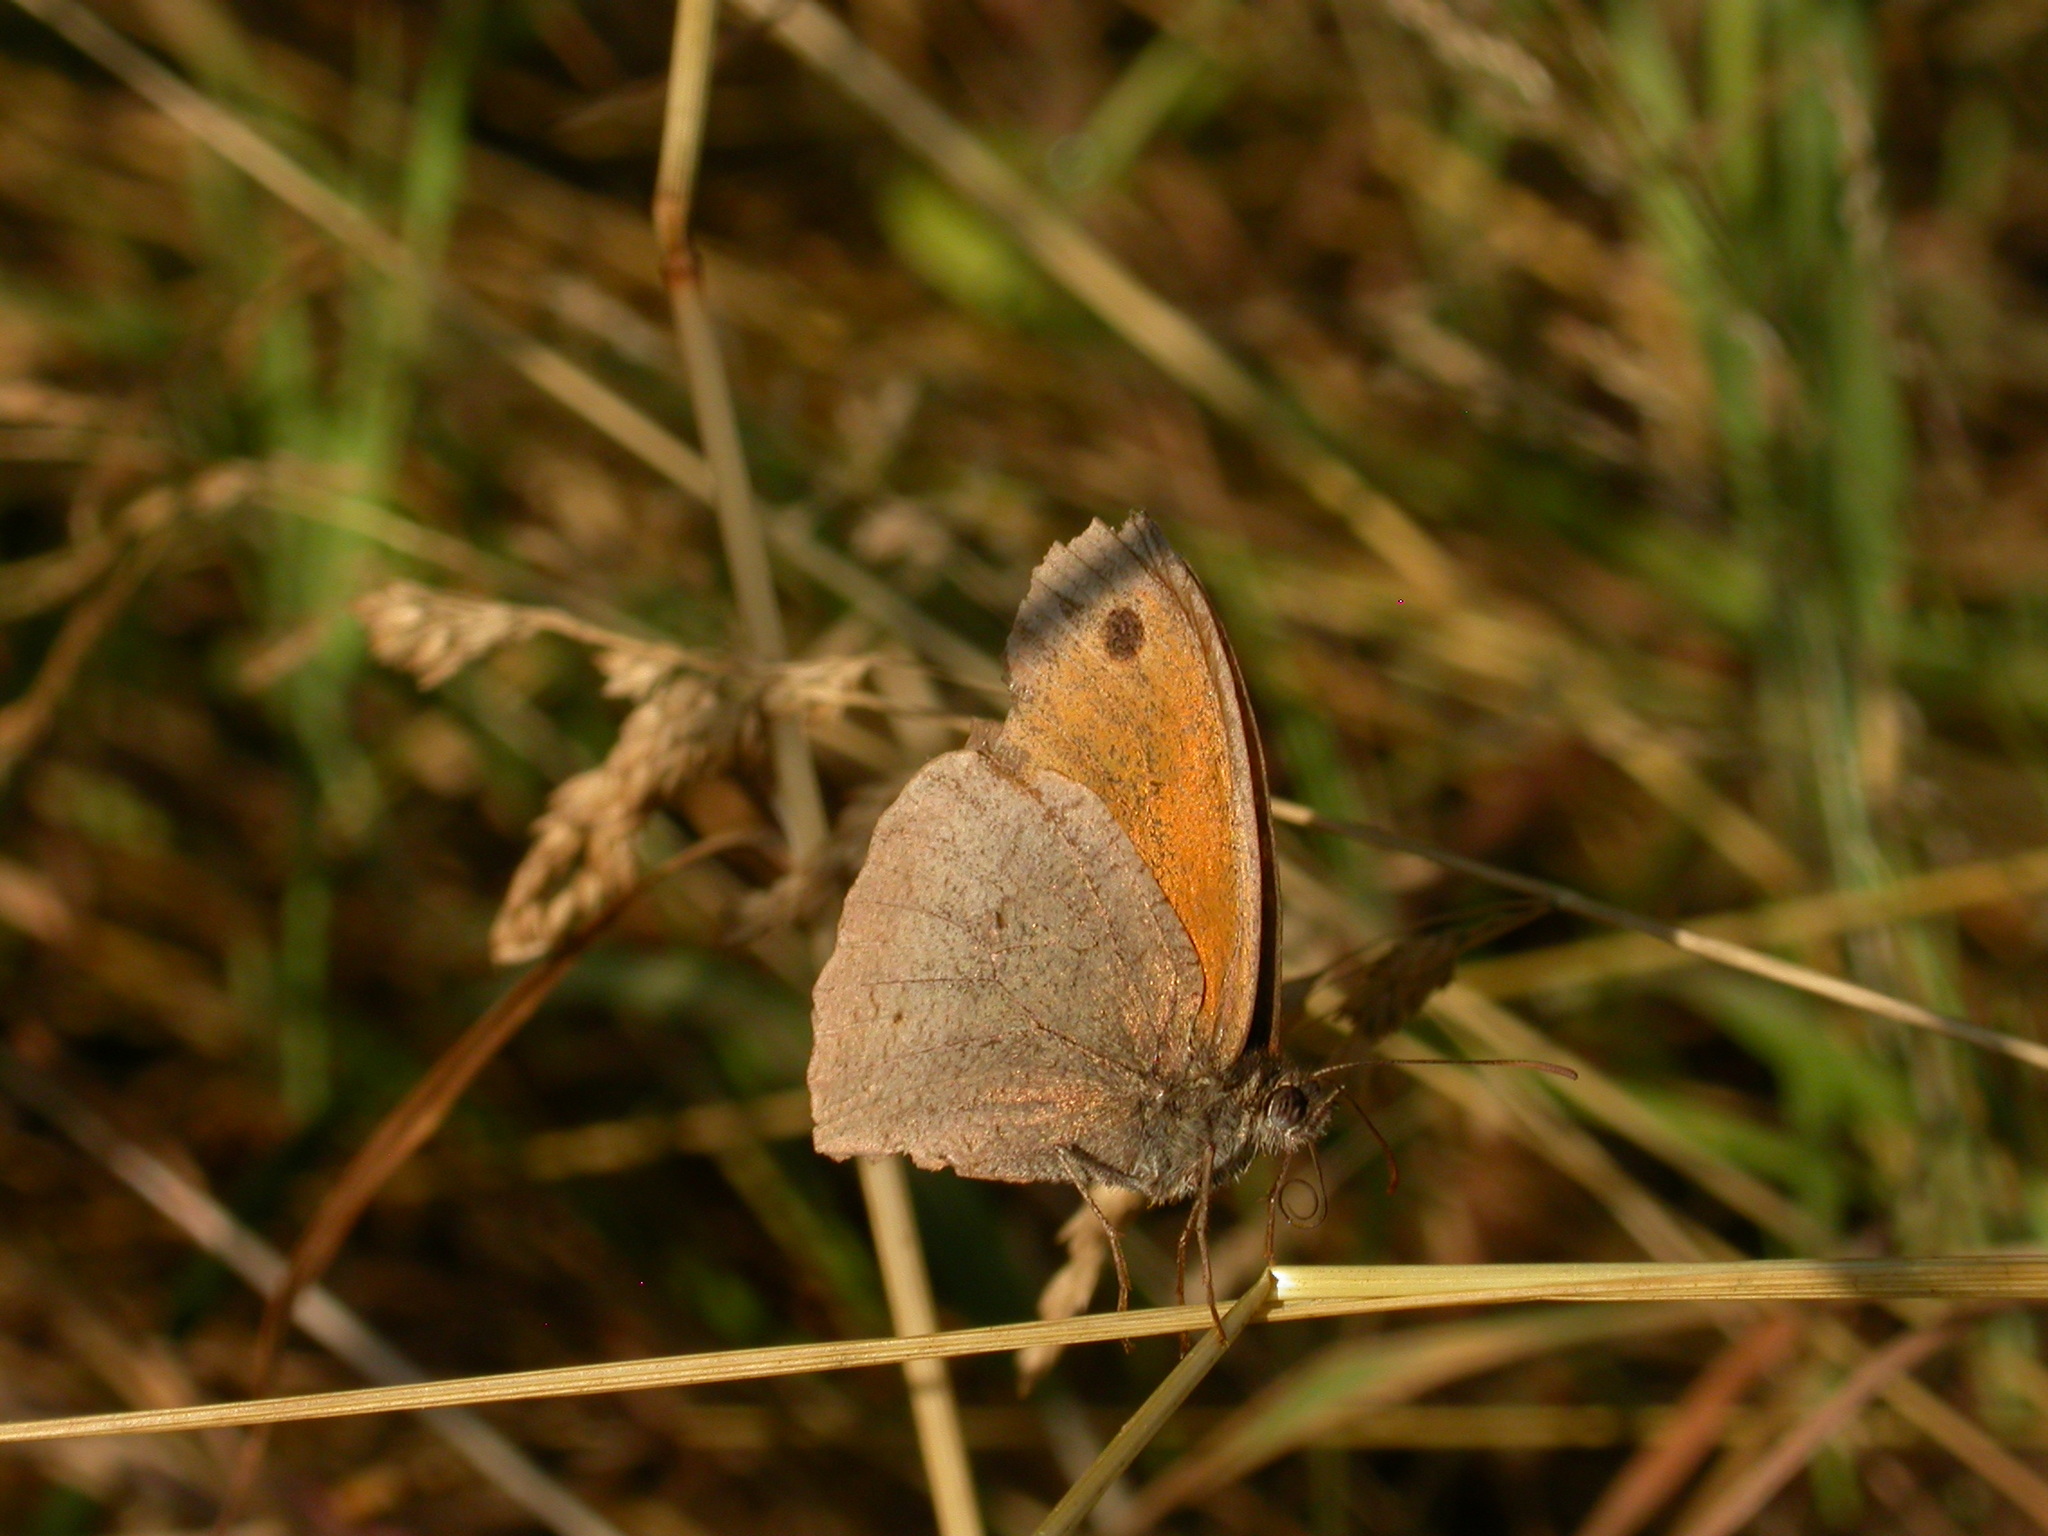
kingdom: Animalia
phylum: Arthropoda
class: Insecta
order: Lepidoptera
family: Nymphalidae
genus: Maniola
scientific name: Maniola jurtina
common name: Meadow brown
